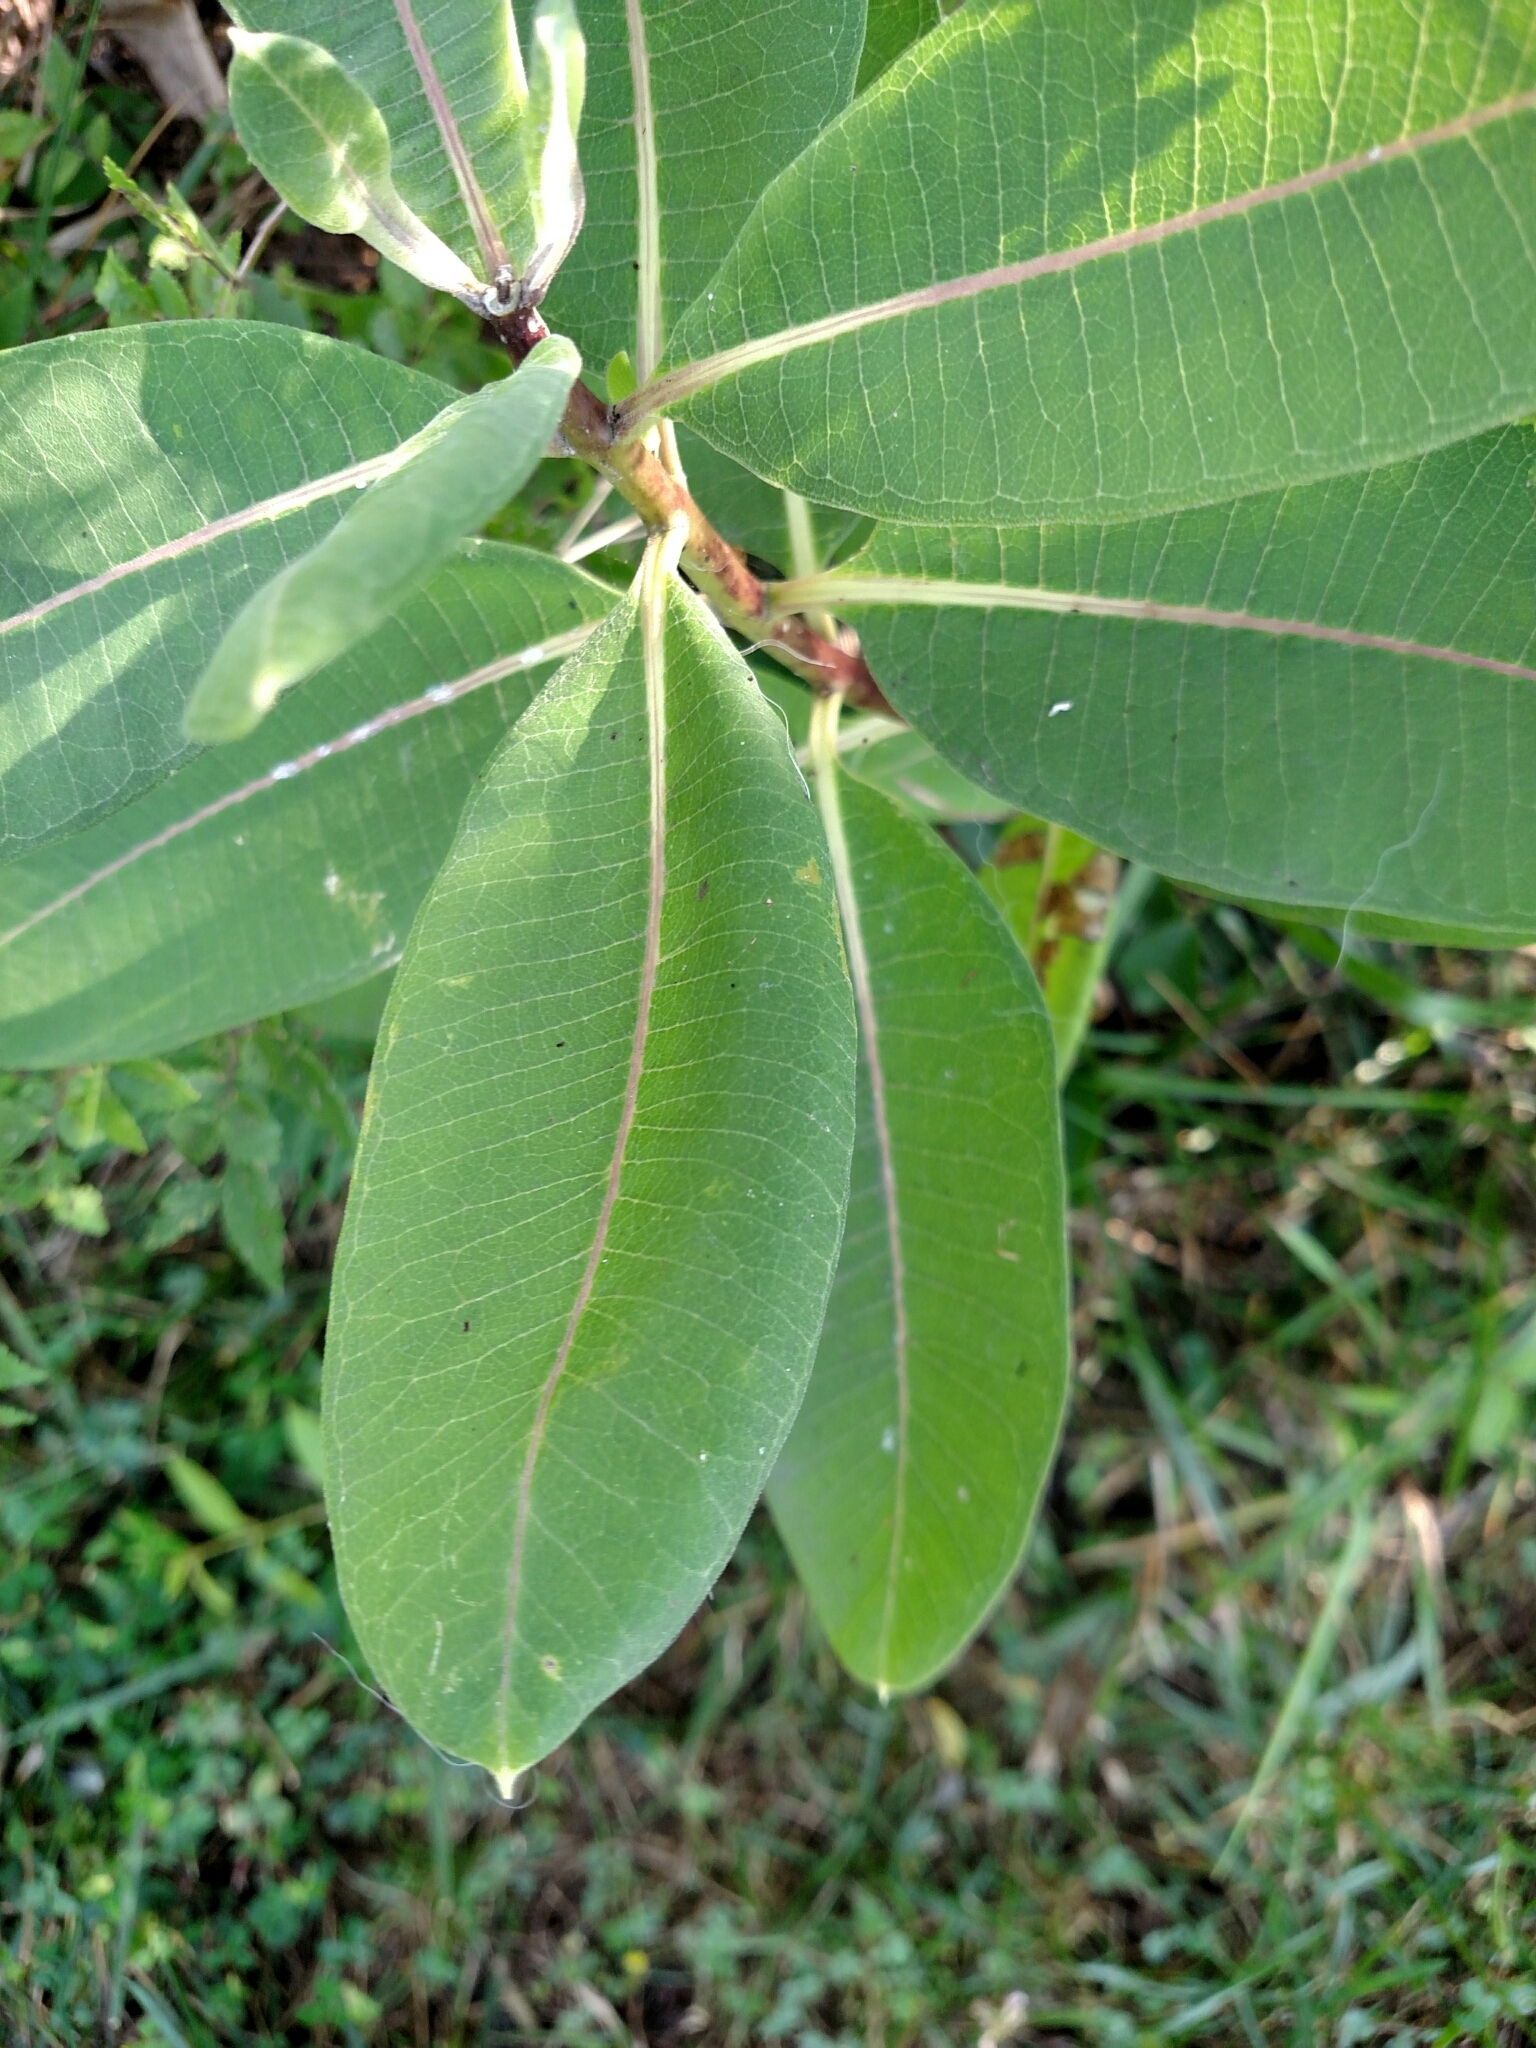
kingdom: Plantae
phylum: Tracheophyta
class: Magnoliopsida
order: Gentianales
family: Apocynaceae
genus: Asclepias
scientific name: Asclepias syriaca
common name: Common milkweed
